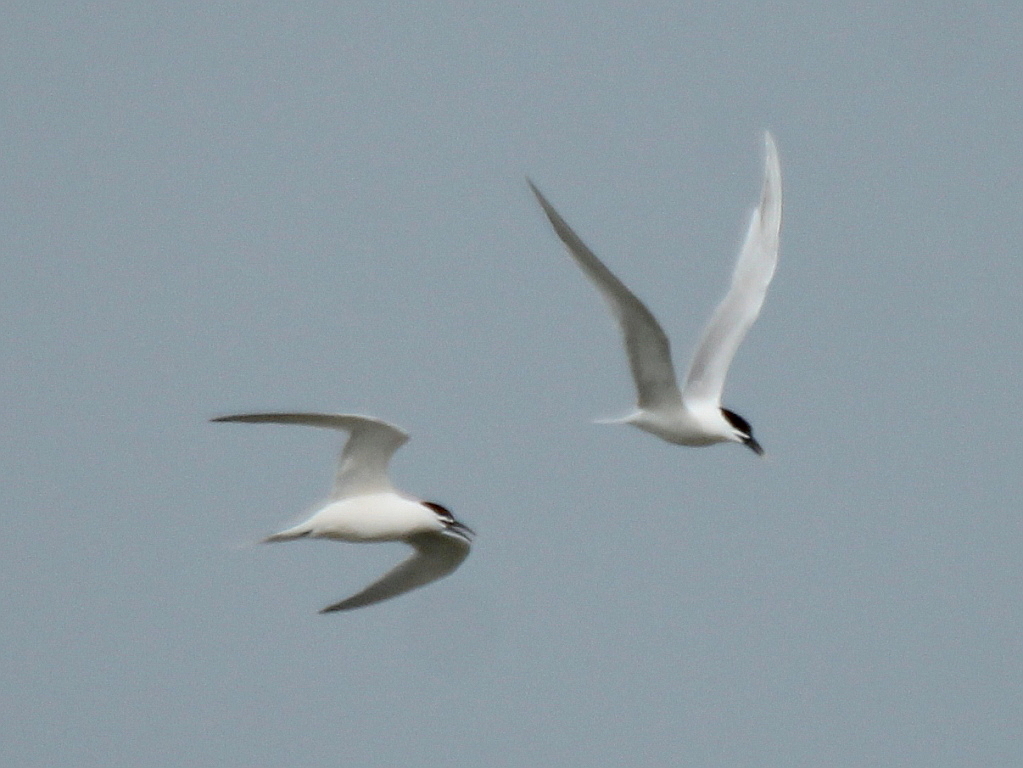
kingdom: Animalia
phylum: Chordata
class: Aves
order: Charadriiformes
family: Laridae
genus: Thalasseus
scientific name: Thalasseus sandvicensis
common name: Sandwich tern
